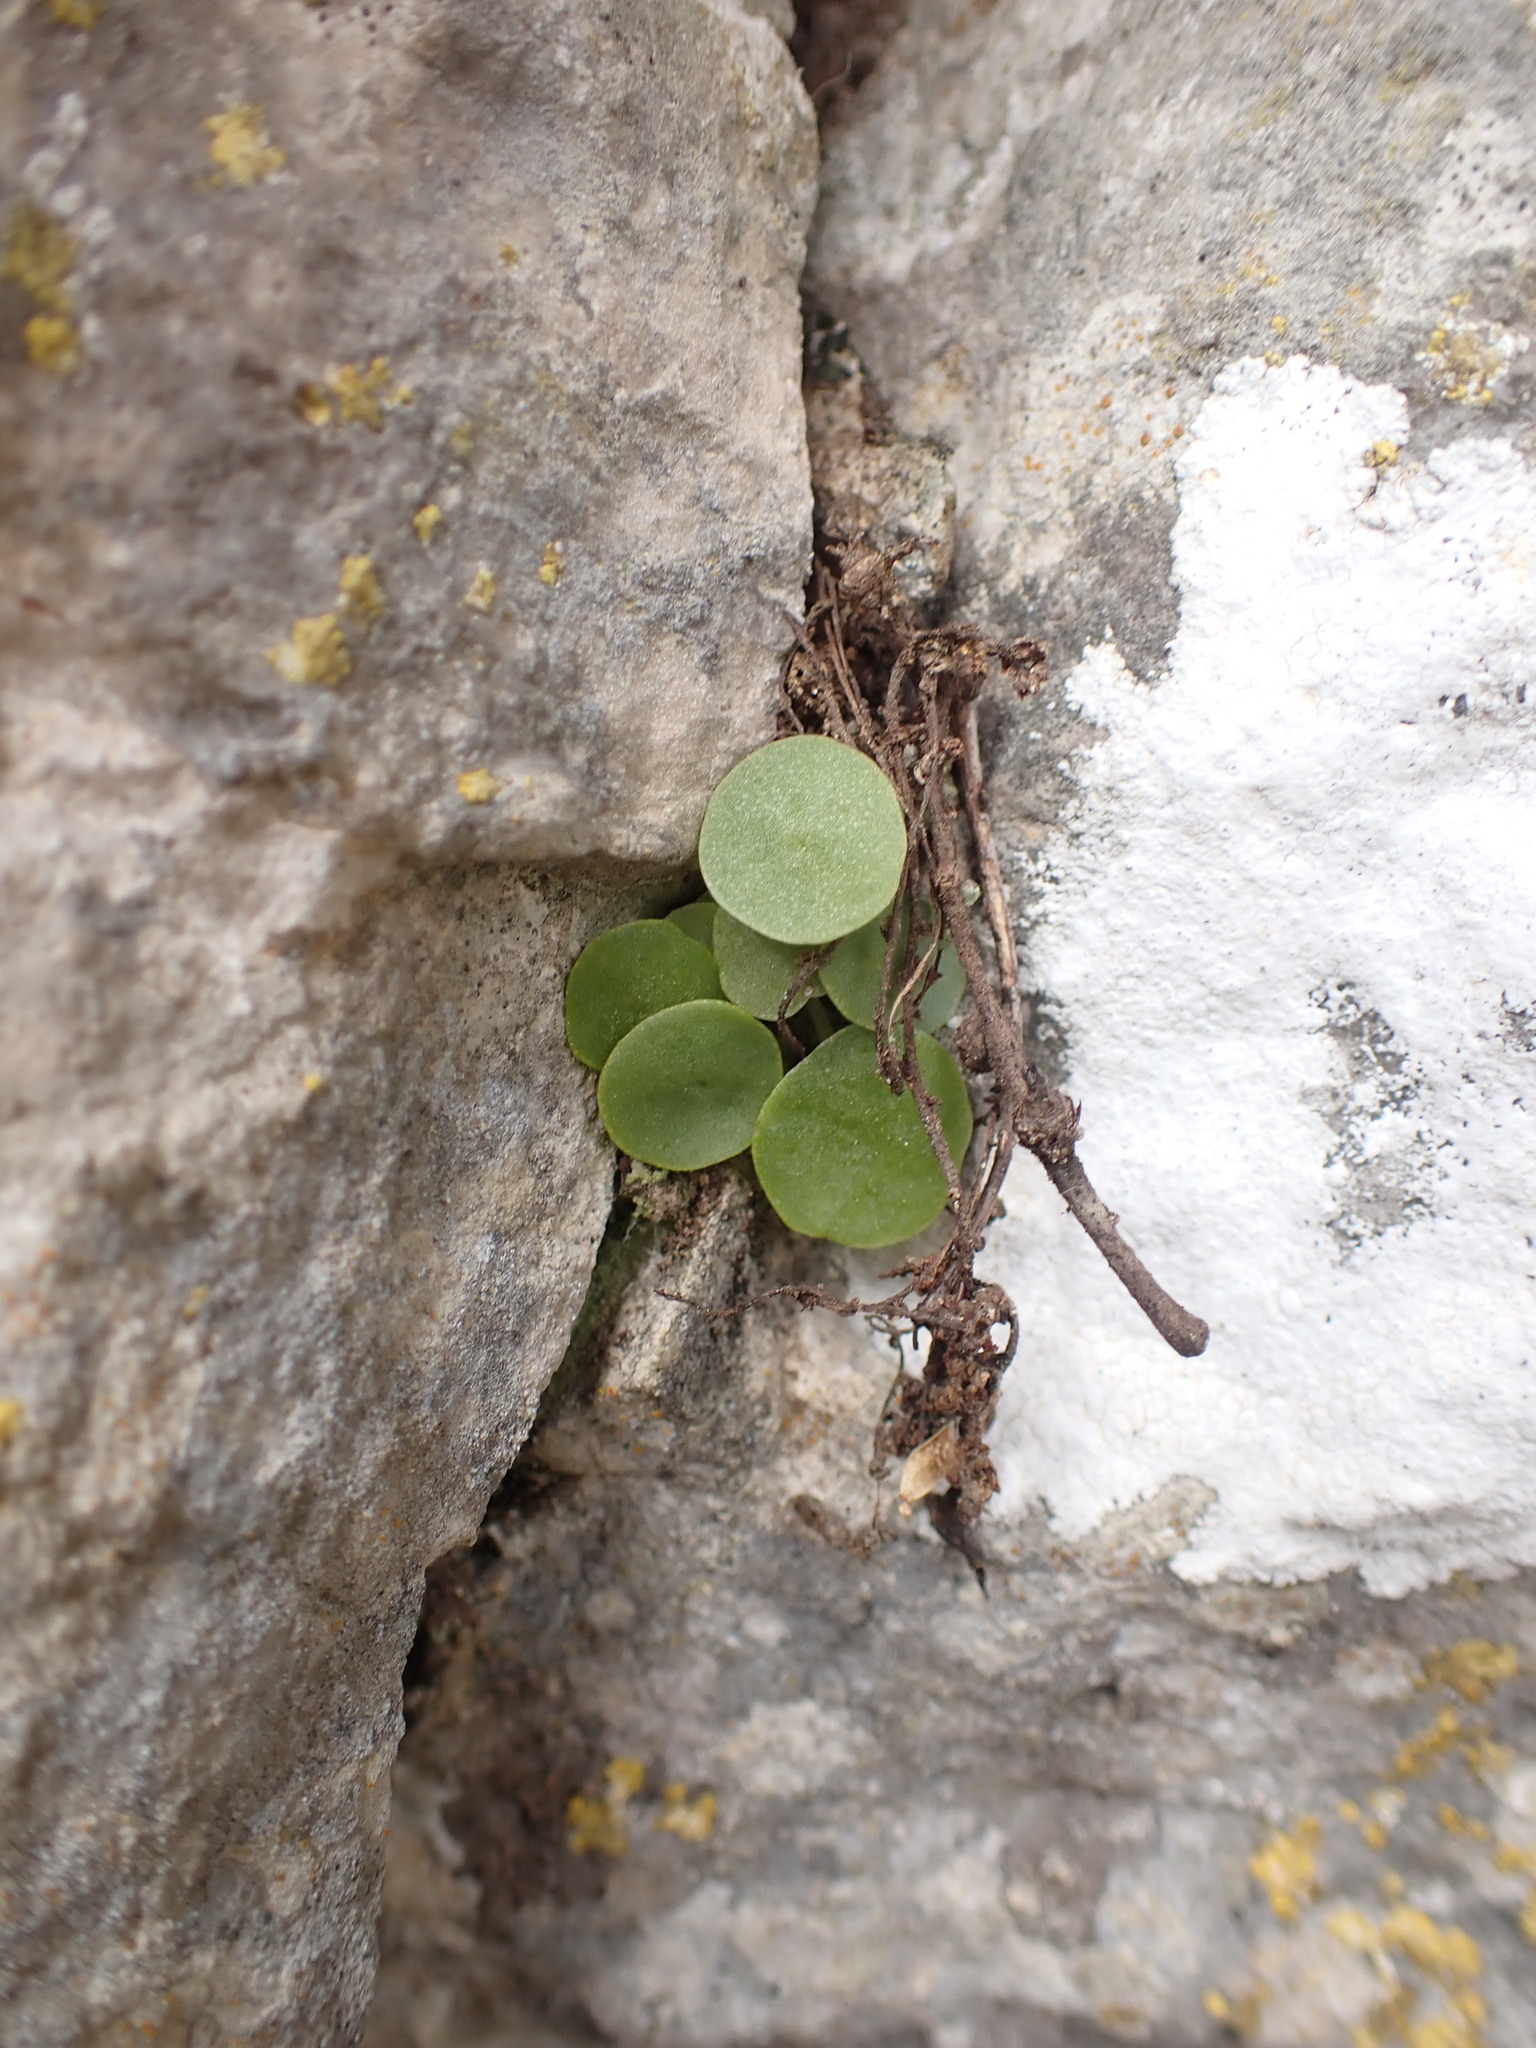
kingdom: Plantae
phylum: Tracheophyta
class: Magnoliopsida
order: Saxifragales
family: Crassulaceae
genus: Umbilicus
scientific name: Umbilicus rupestris
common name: Navelwort
